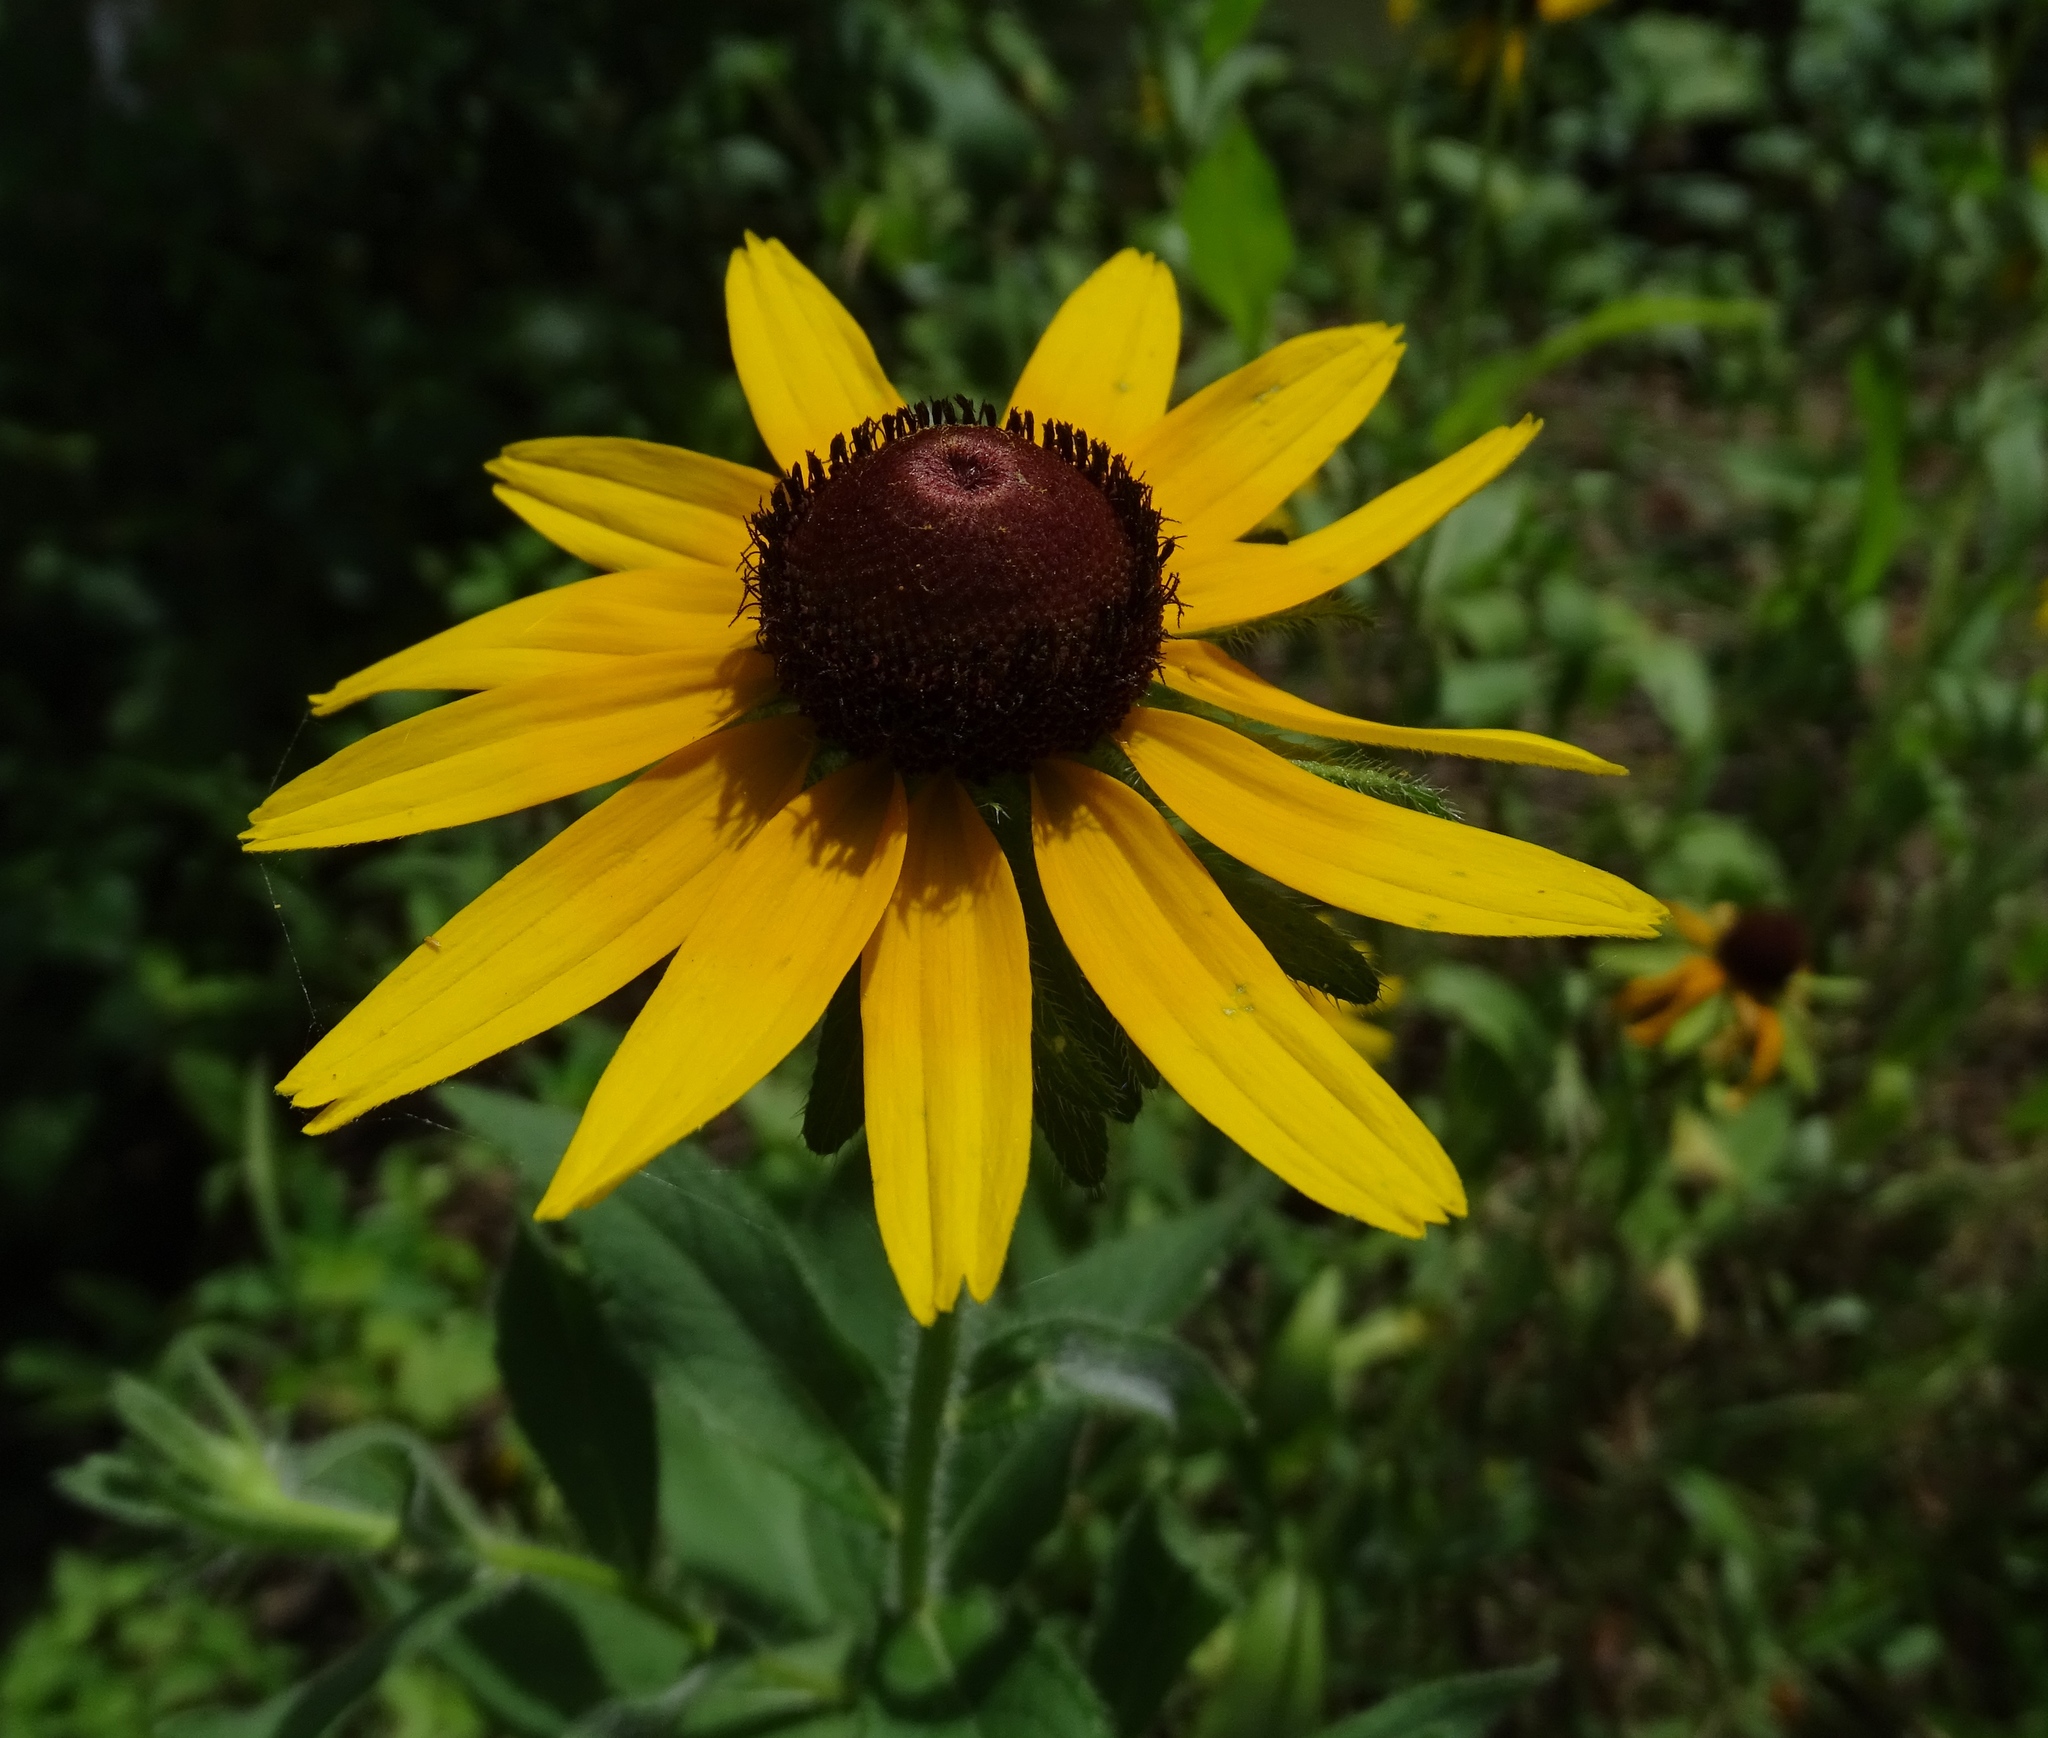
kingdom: Plantae
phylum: Tracheophyta
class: Magnoliopsida
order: Asterales
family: Asteraceae
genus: Rudbeckia
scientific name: Rudbeckia hirta
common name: Black-eyed-susan
